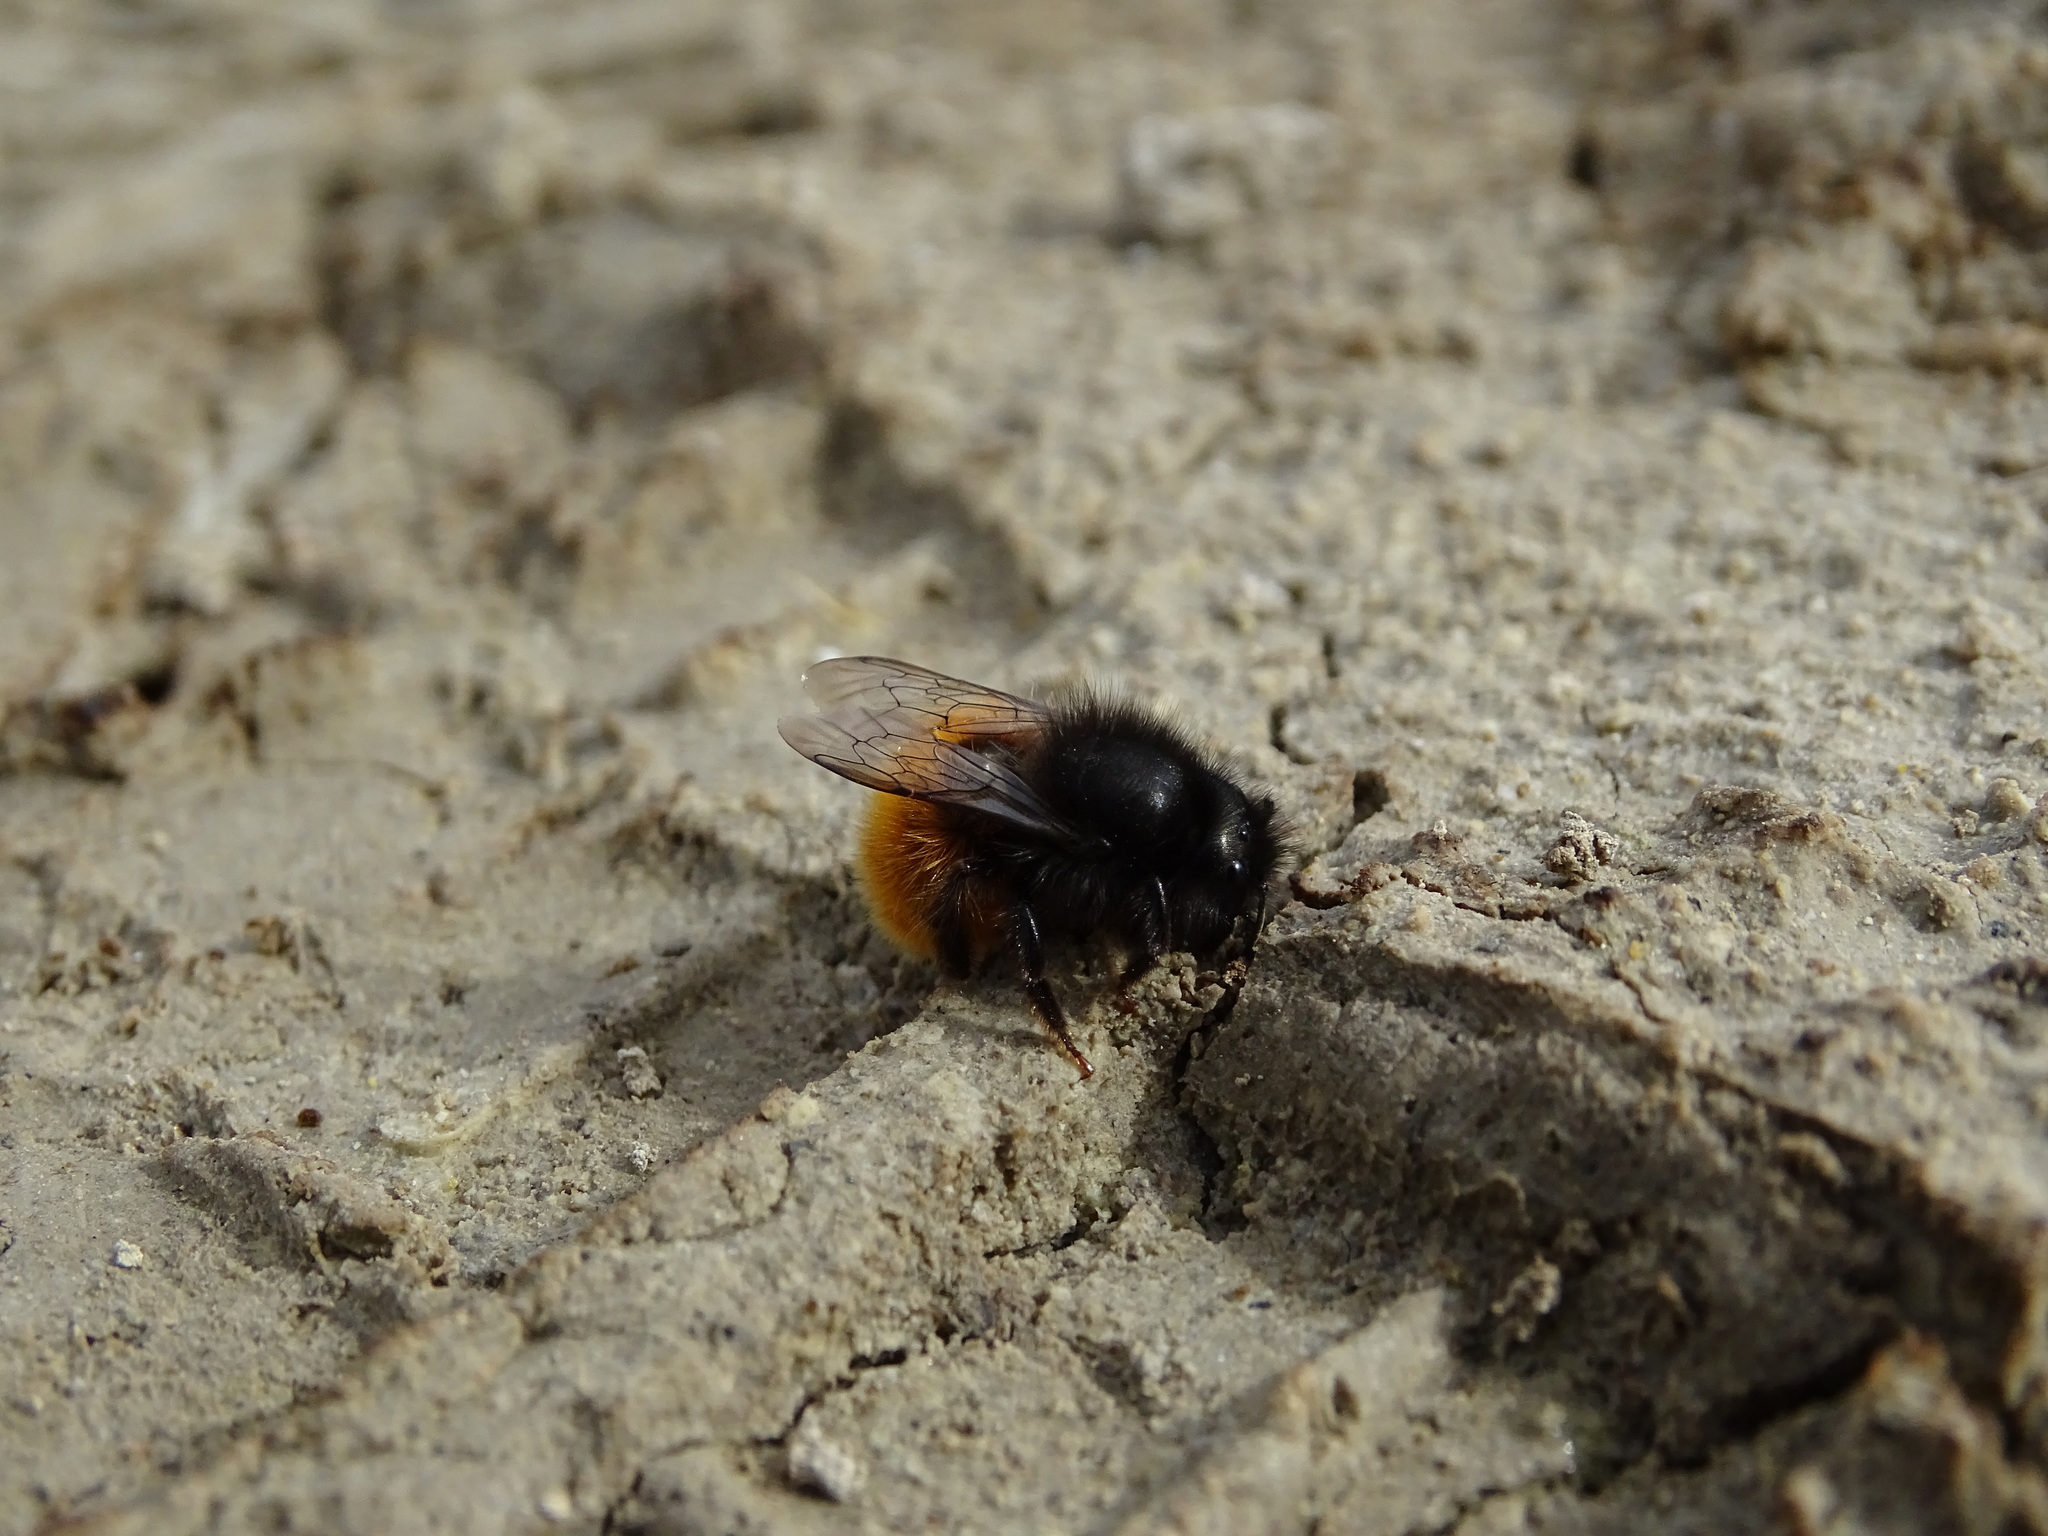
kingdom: Animalia
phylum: Arthropoda
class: Insecta
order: Hymenoptera
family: Megachilidae
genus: Osmia
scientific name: Osmia cornuta
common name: Mason bee
